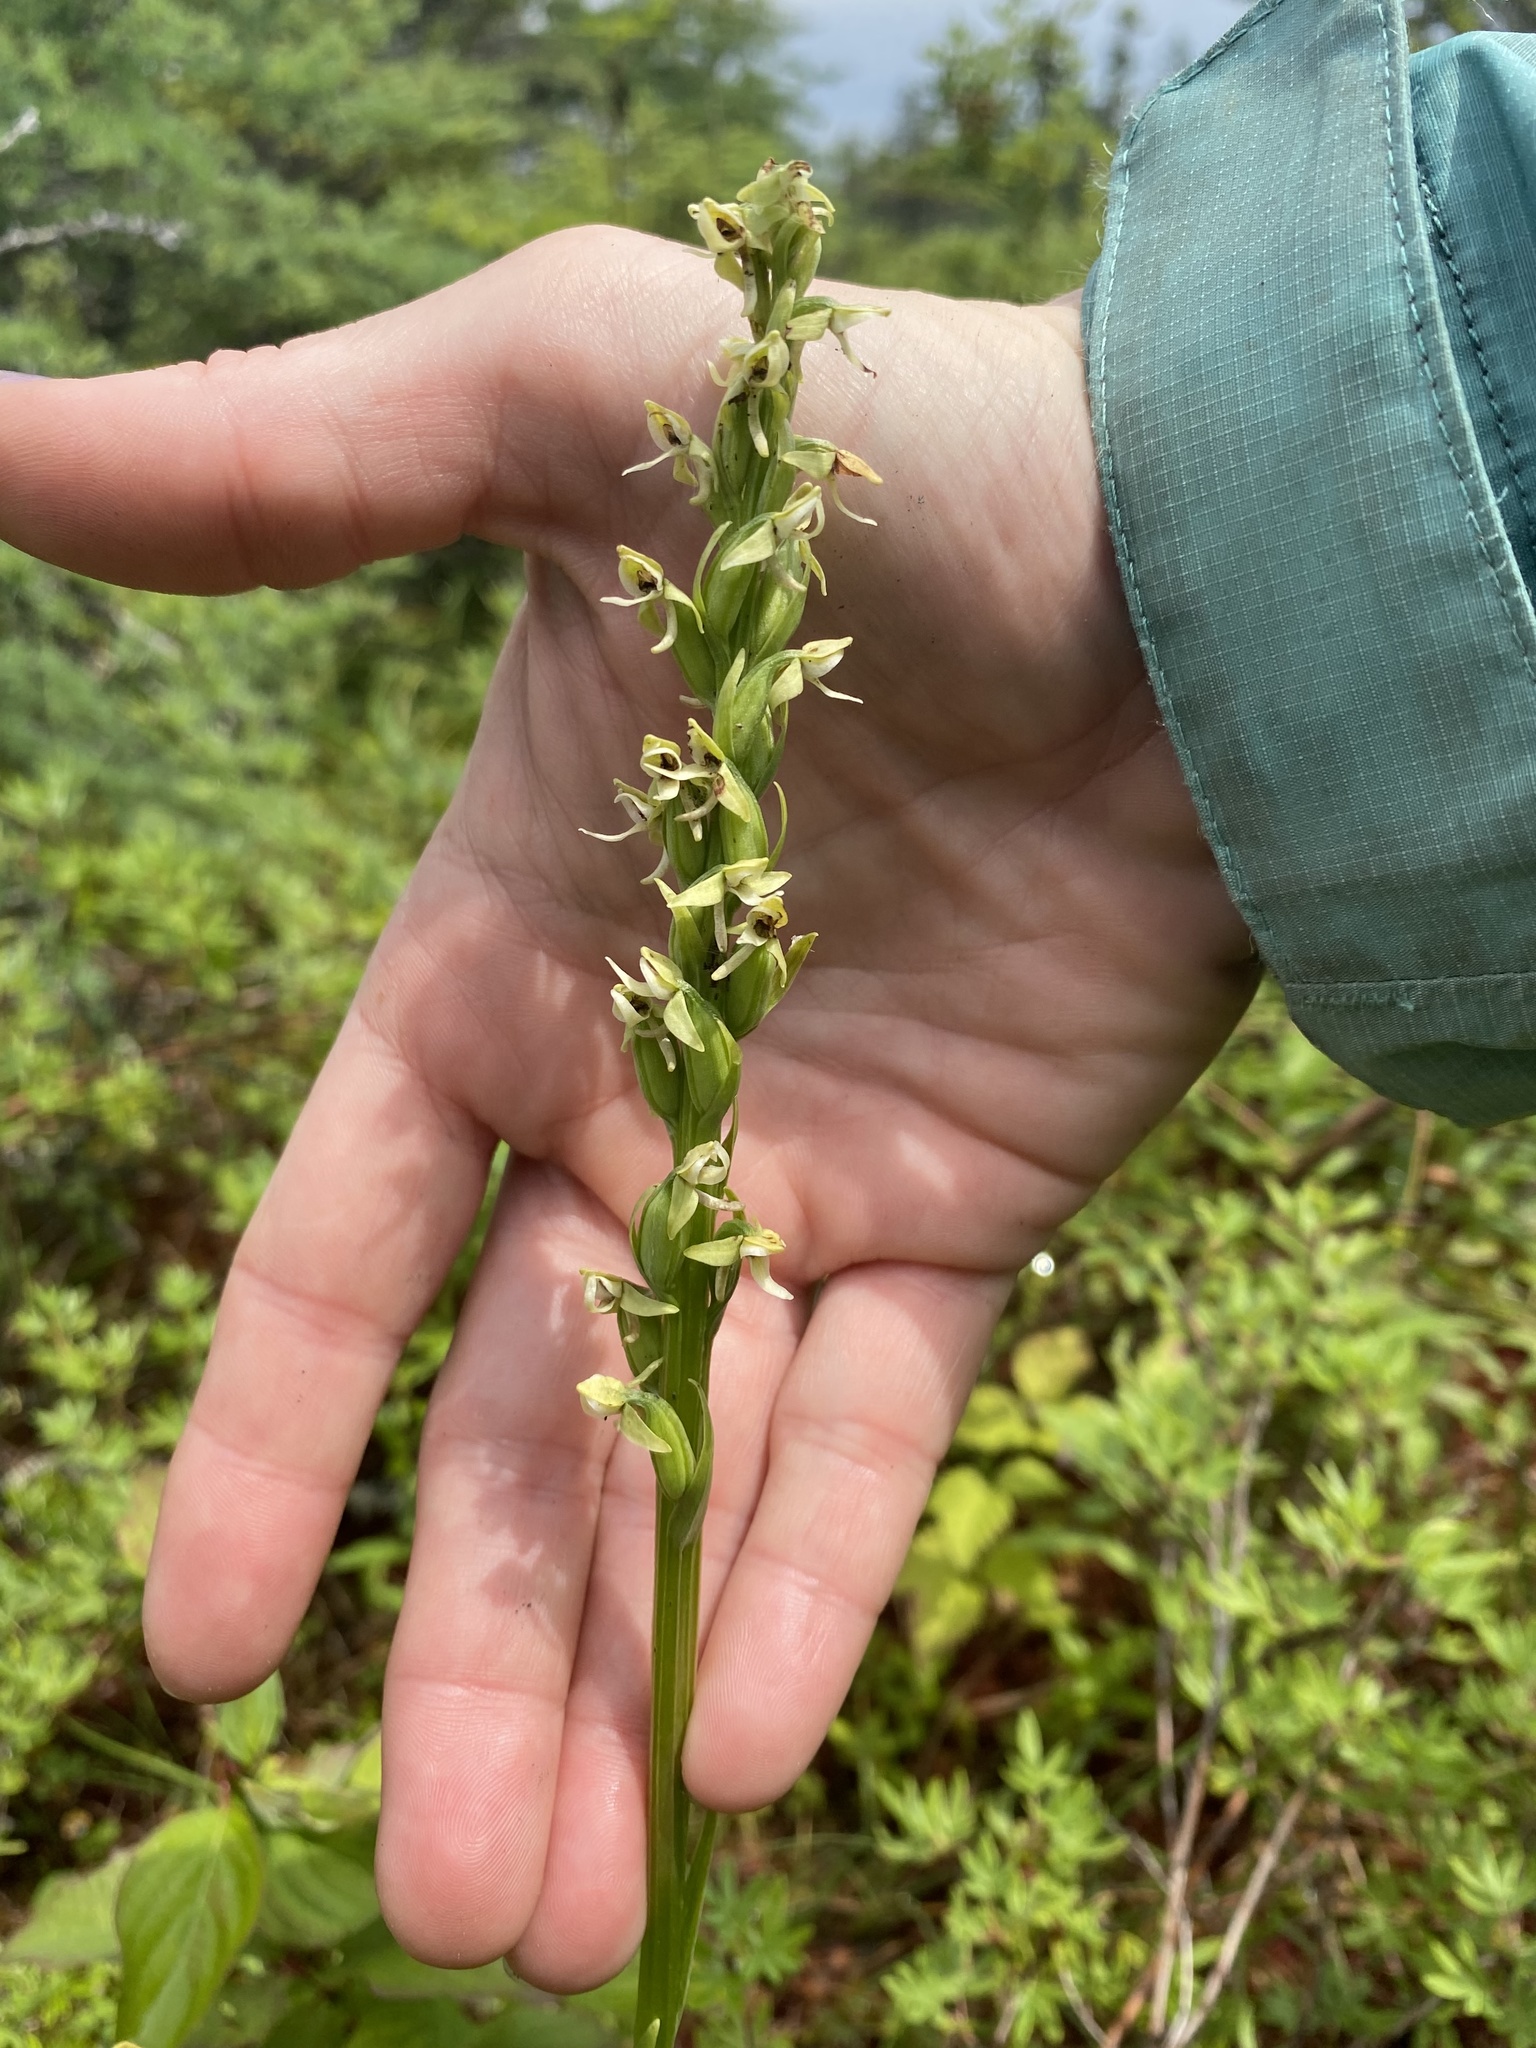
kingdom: Plantae
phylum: Tracheophyta
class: Liliopsida
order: Asparagales
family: Orchidaceae
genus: Platanthera
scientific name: Platanthera huronensis
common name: Fragrant green orchid
